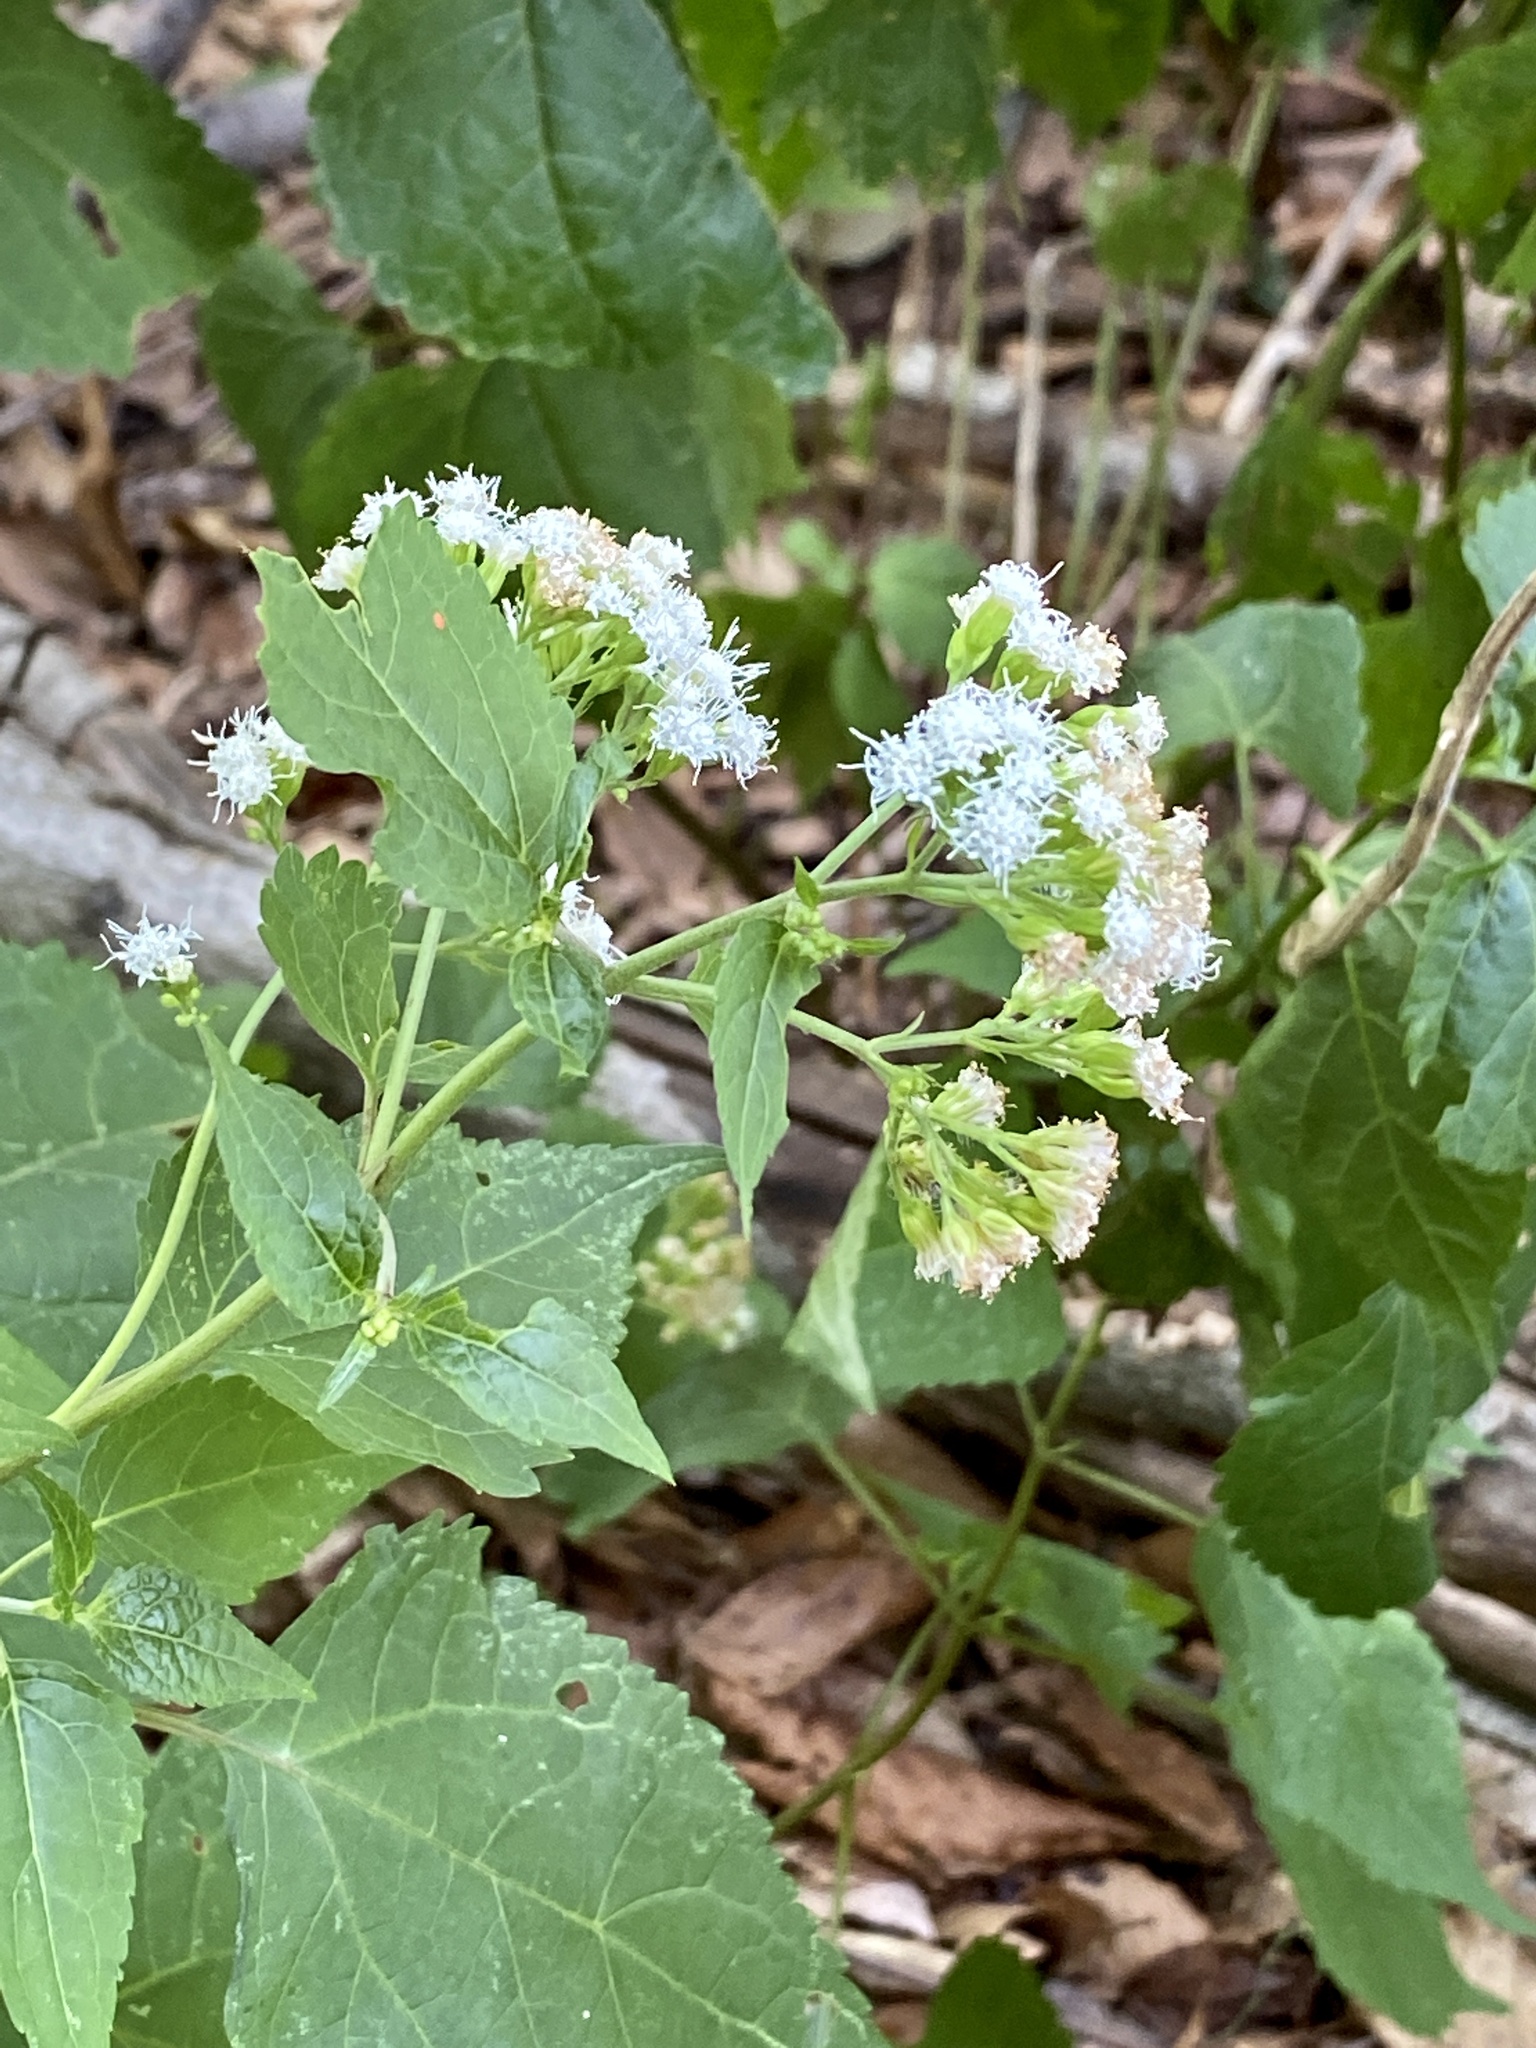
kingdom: Plantae
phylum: Tracheophyta
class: Magnoliopsida
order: Asterales
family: Asteraceae
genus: Ageratina
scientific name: Ageratina altissima
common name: White snakeroot
